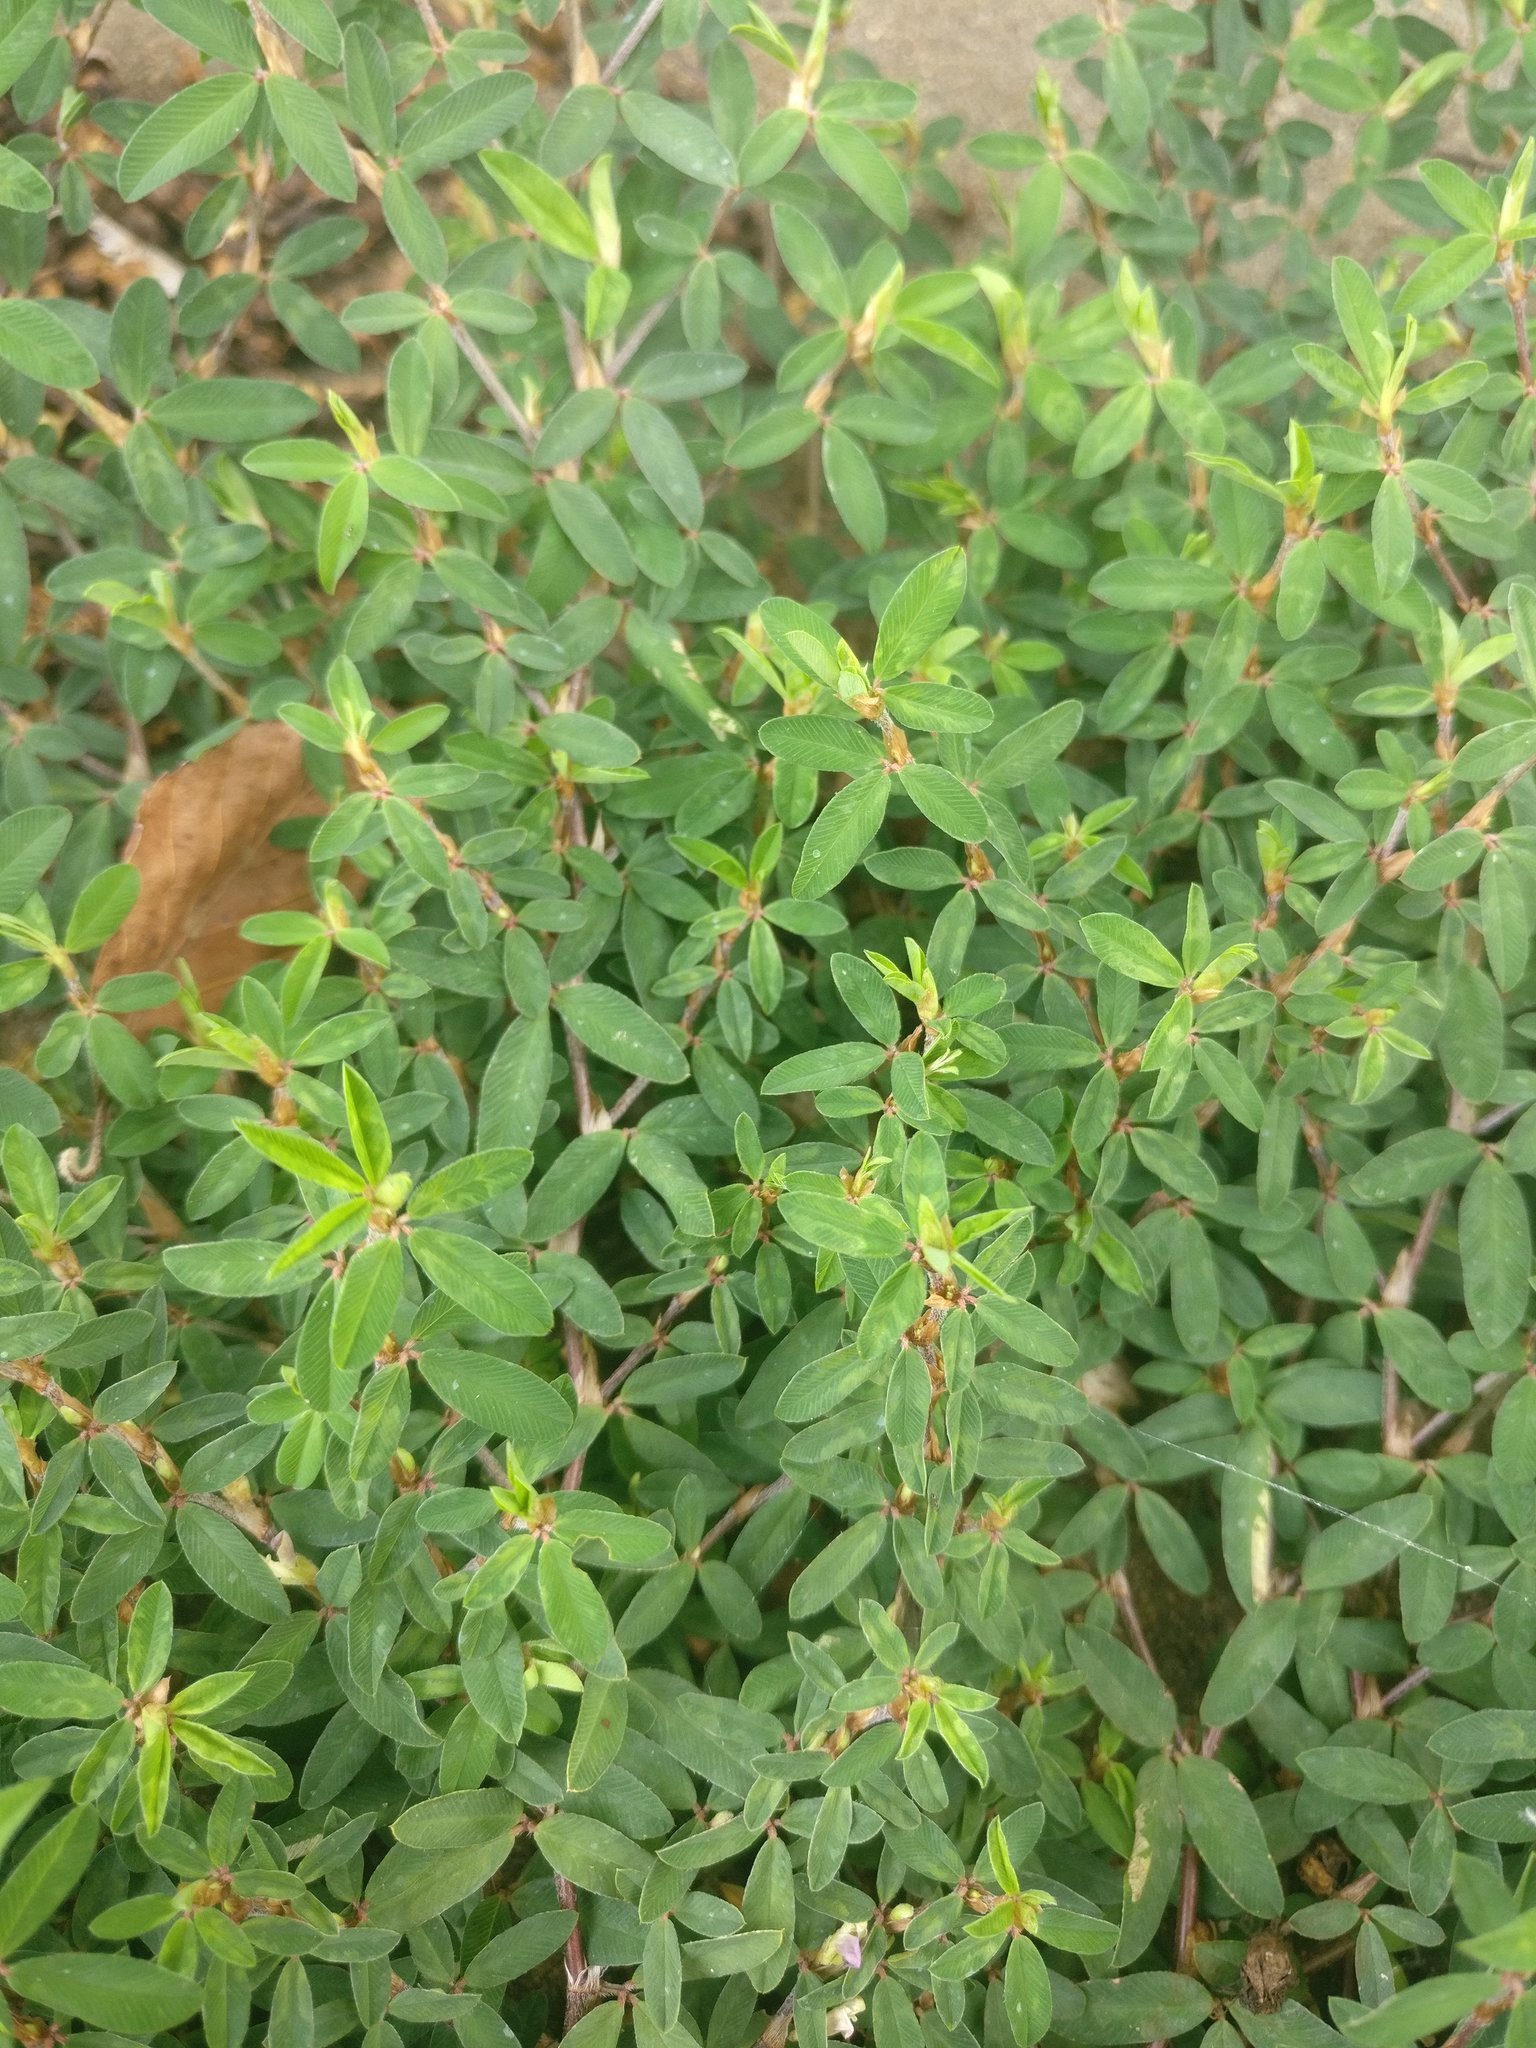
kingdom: Plantae
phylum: Tracheophyta
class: Magnoliopsida
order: Fabales
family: Fabaceae
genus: Kummerowia
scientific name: Kummerowia striata
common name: Japanese clover
